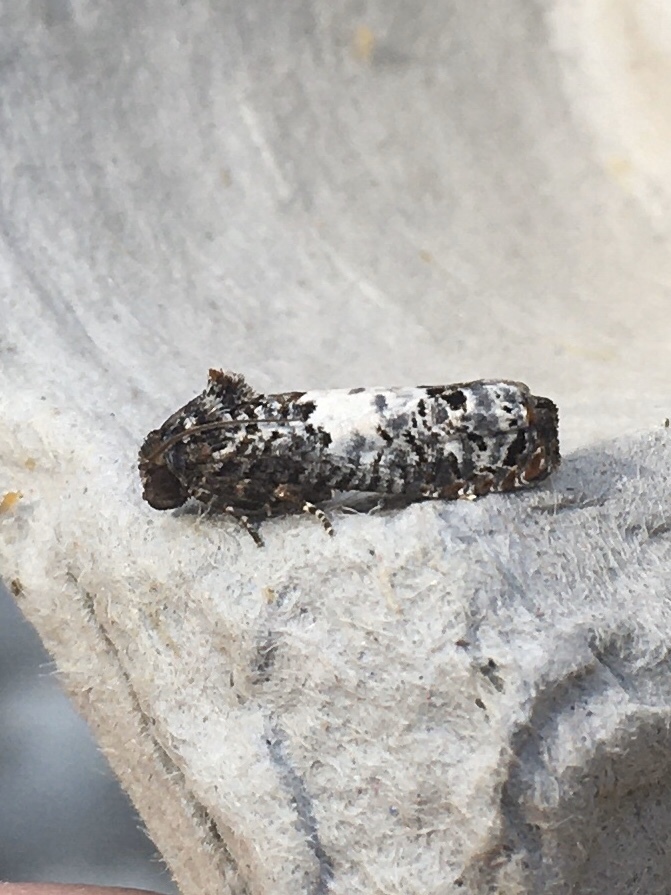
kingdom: Animalia
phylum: Arthropoda
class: Insecta
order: Lepidoptera
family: Tortricidae
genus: Epiblema
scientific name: Epiblema carolinana
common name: Gray-blotched epiblema moth
